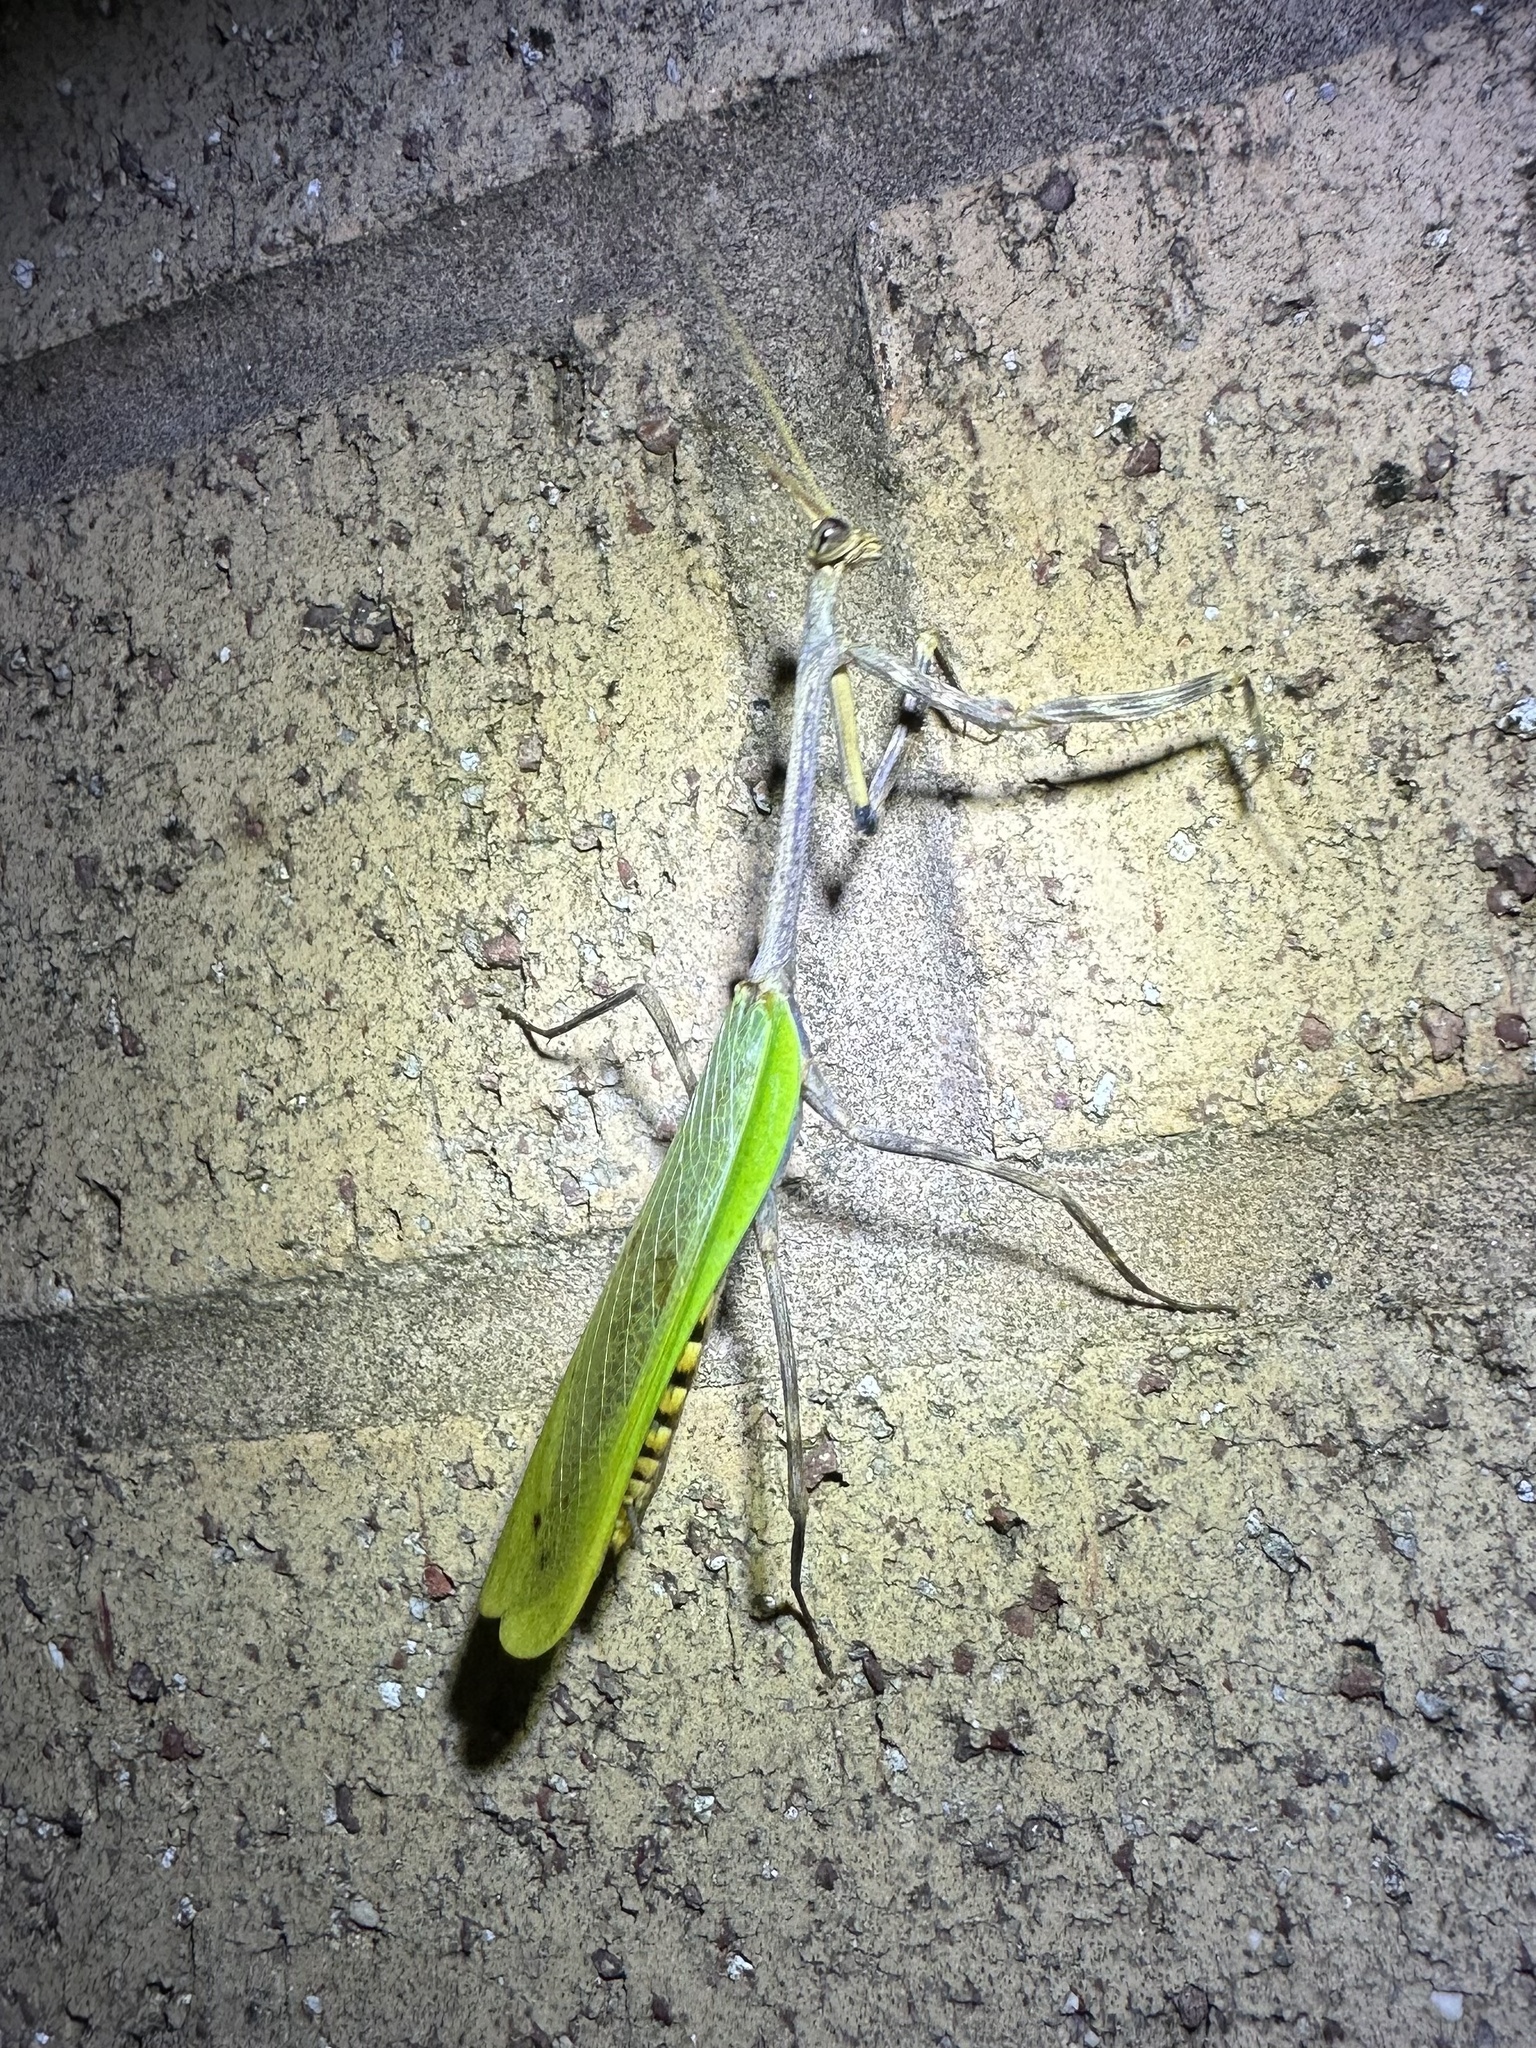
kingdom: Animalia
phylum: Arthropoda
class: Insecta
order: Mantodea
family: Mantidae
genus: Pseudovates
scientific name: Pseudovates chlorophaea
